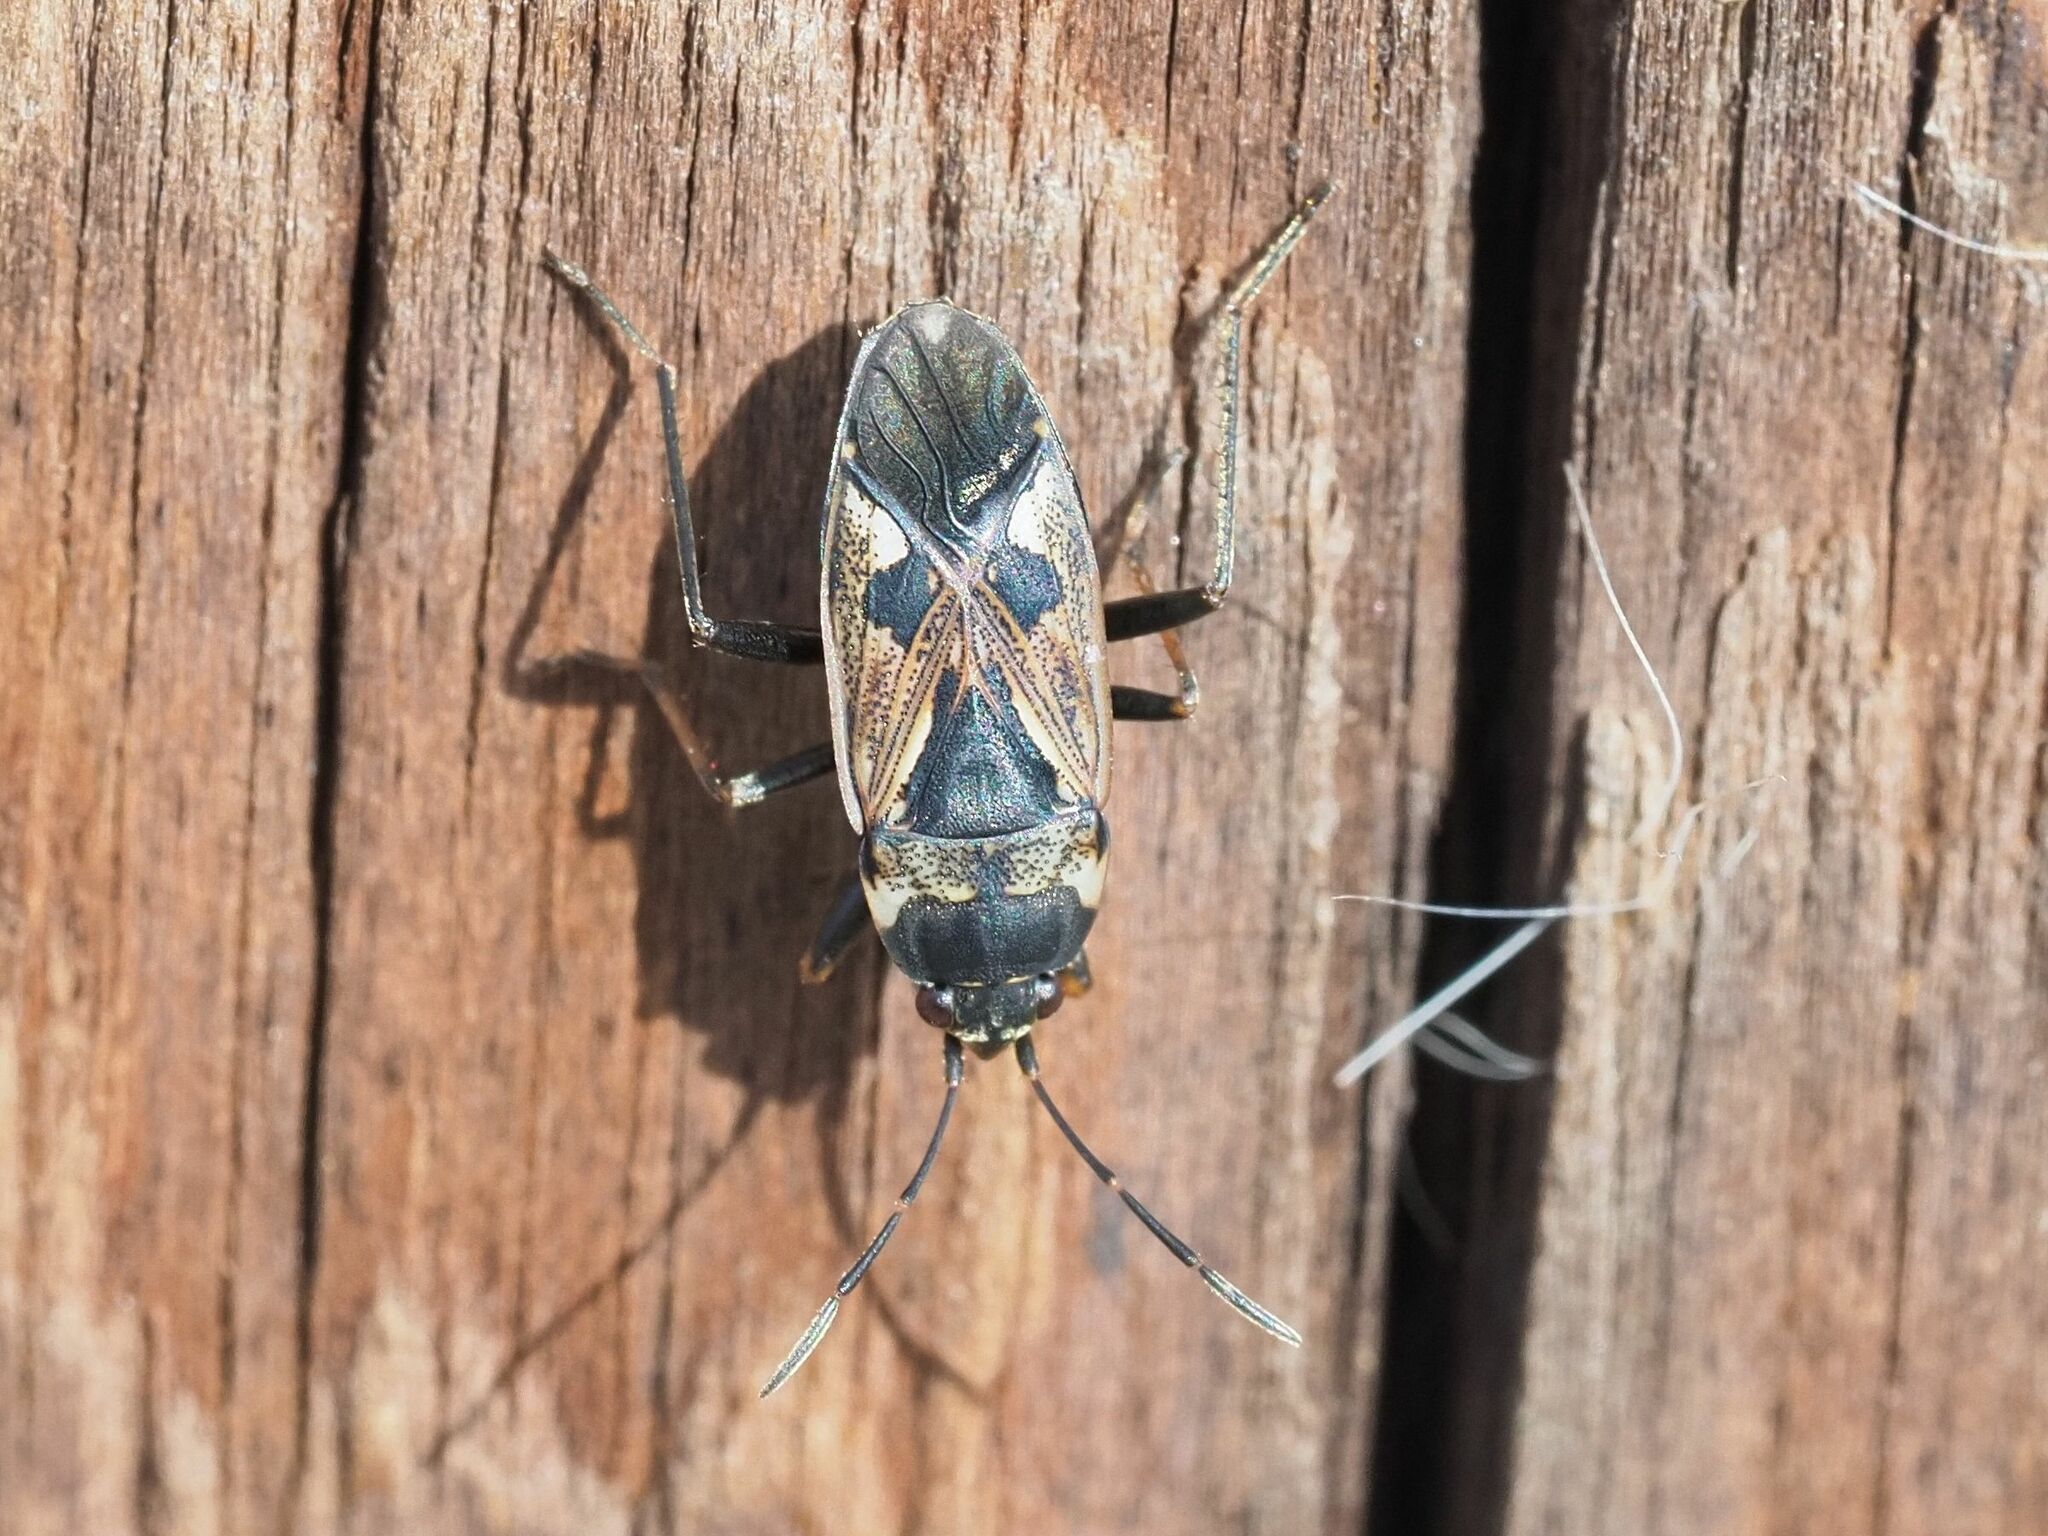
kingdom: Animalia
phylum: Arthropoda
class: Insecta
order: Hemiptera
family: Rhyparochromidae
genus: Rhyparochromus
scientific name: Rhyparochromus vulgaris
